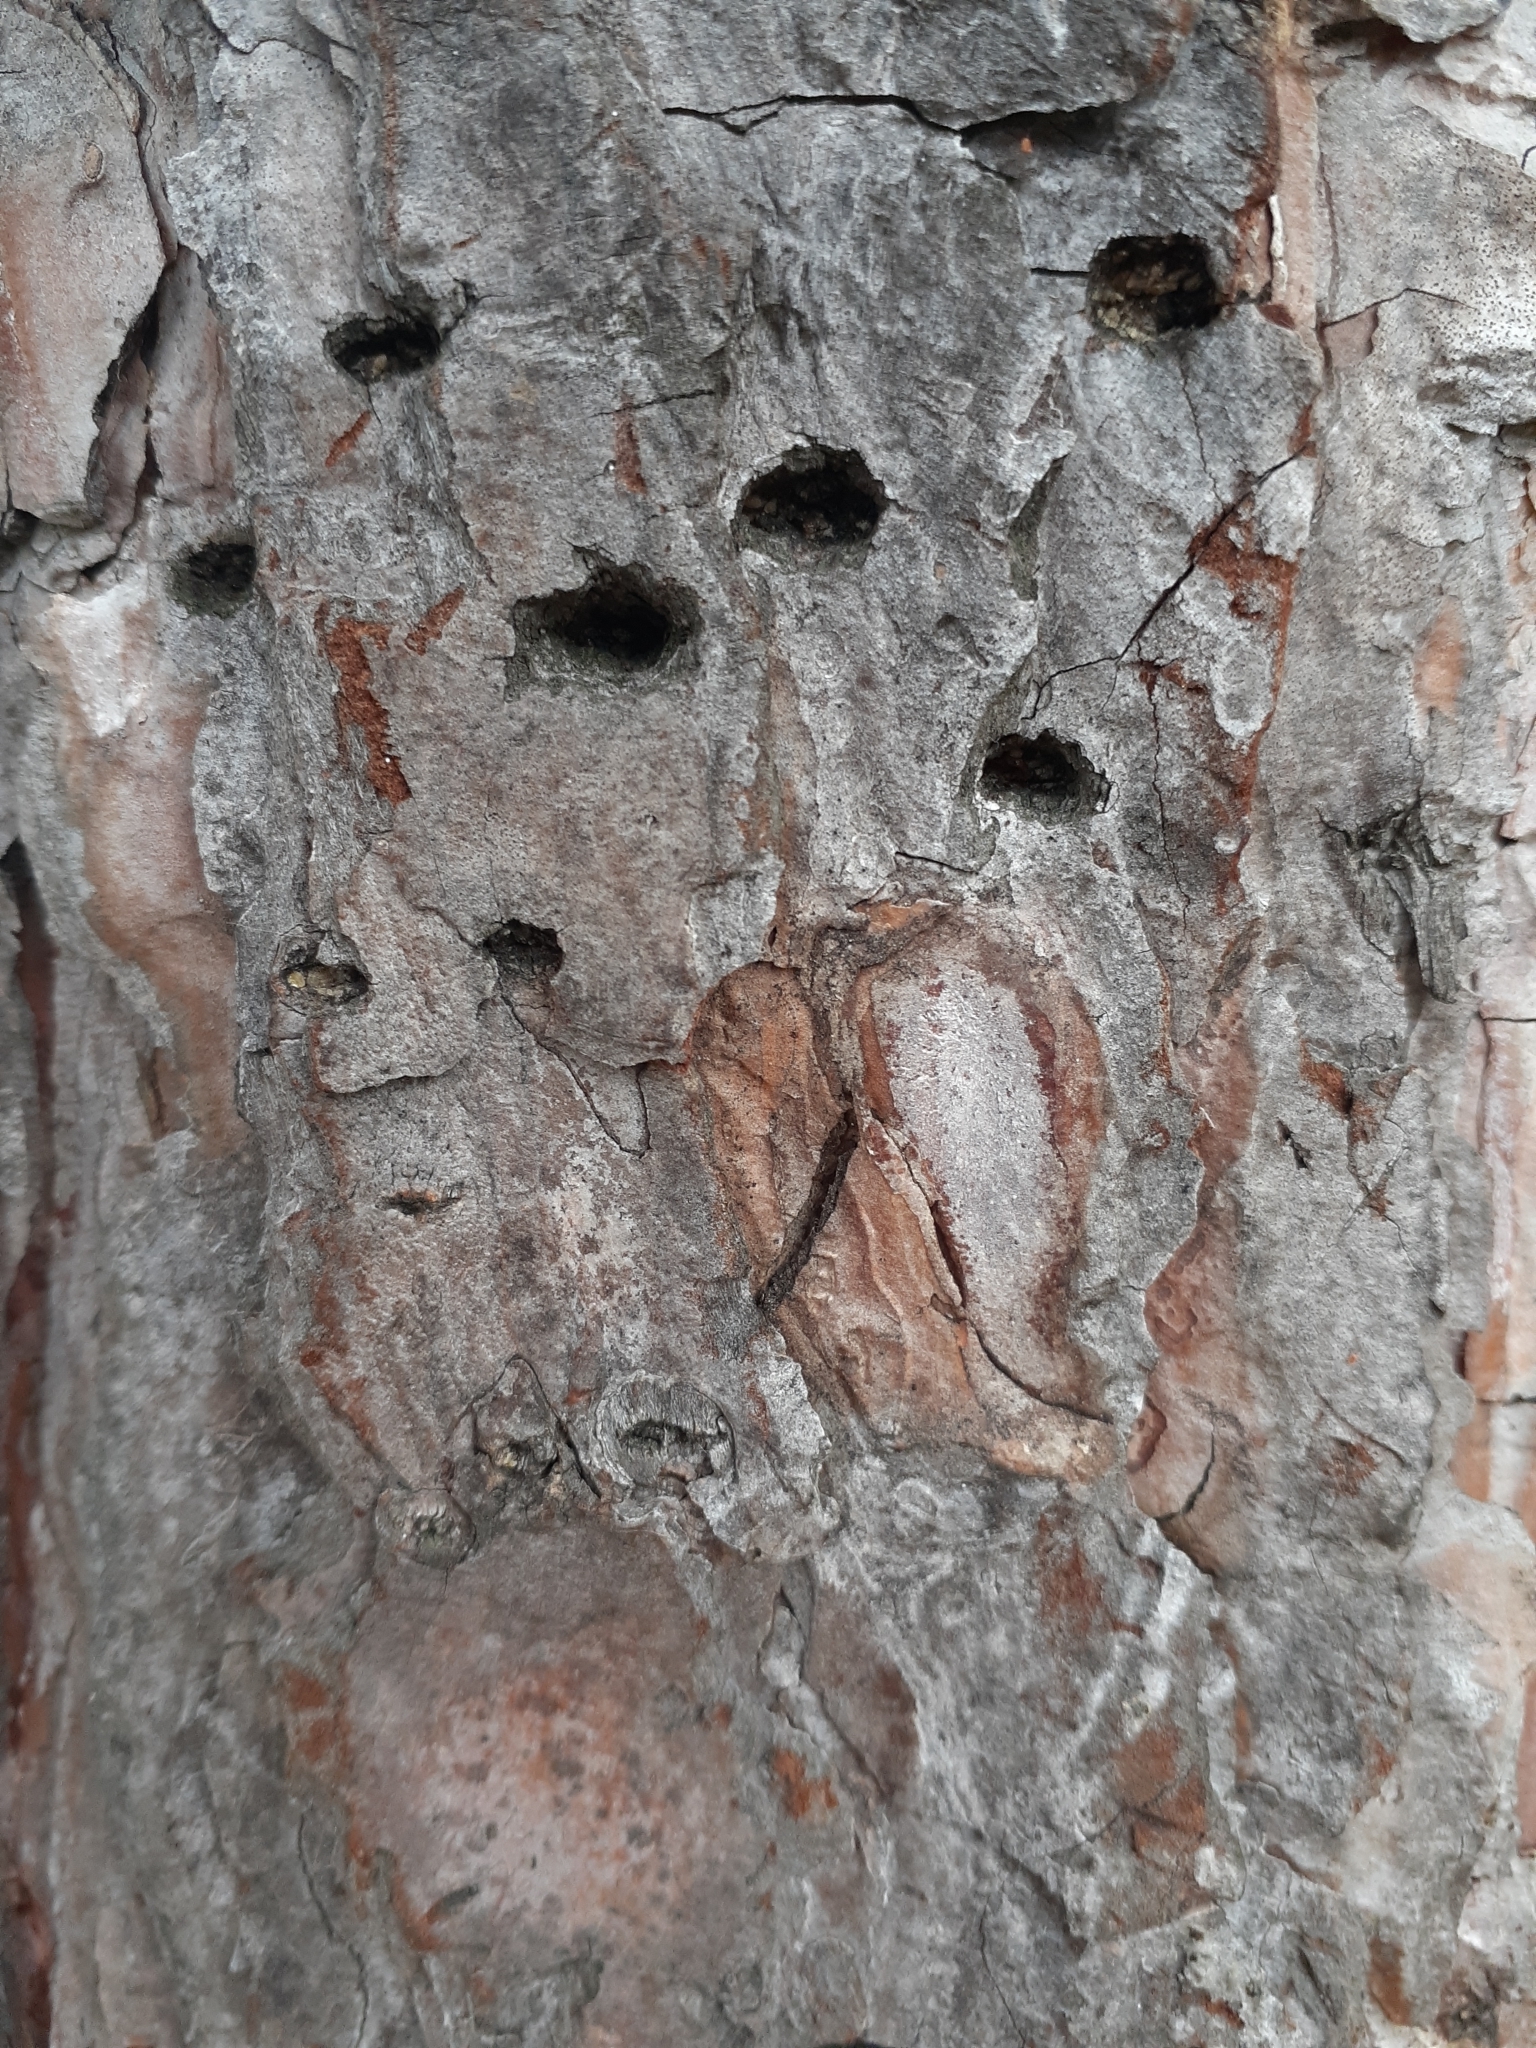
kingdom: Animalia
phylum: Chordata
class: Aves
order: Piciformes
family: Picidae
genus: Sphyrapicus
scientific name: Sphyrapicus varius
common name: Yellow-bellied sapsucker
